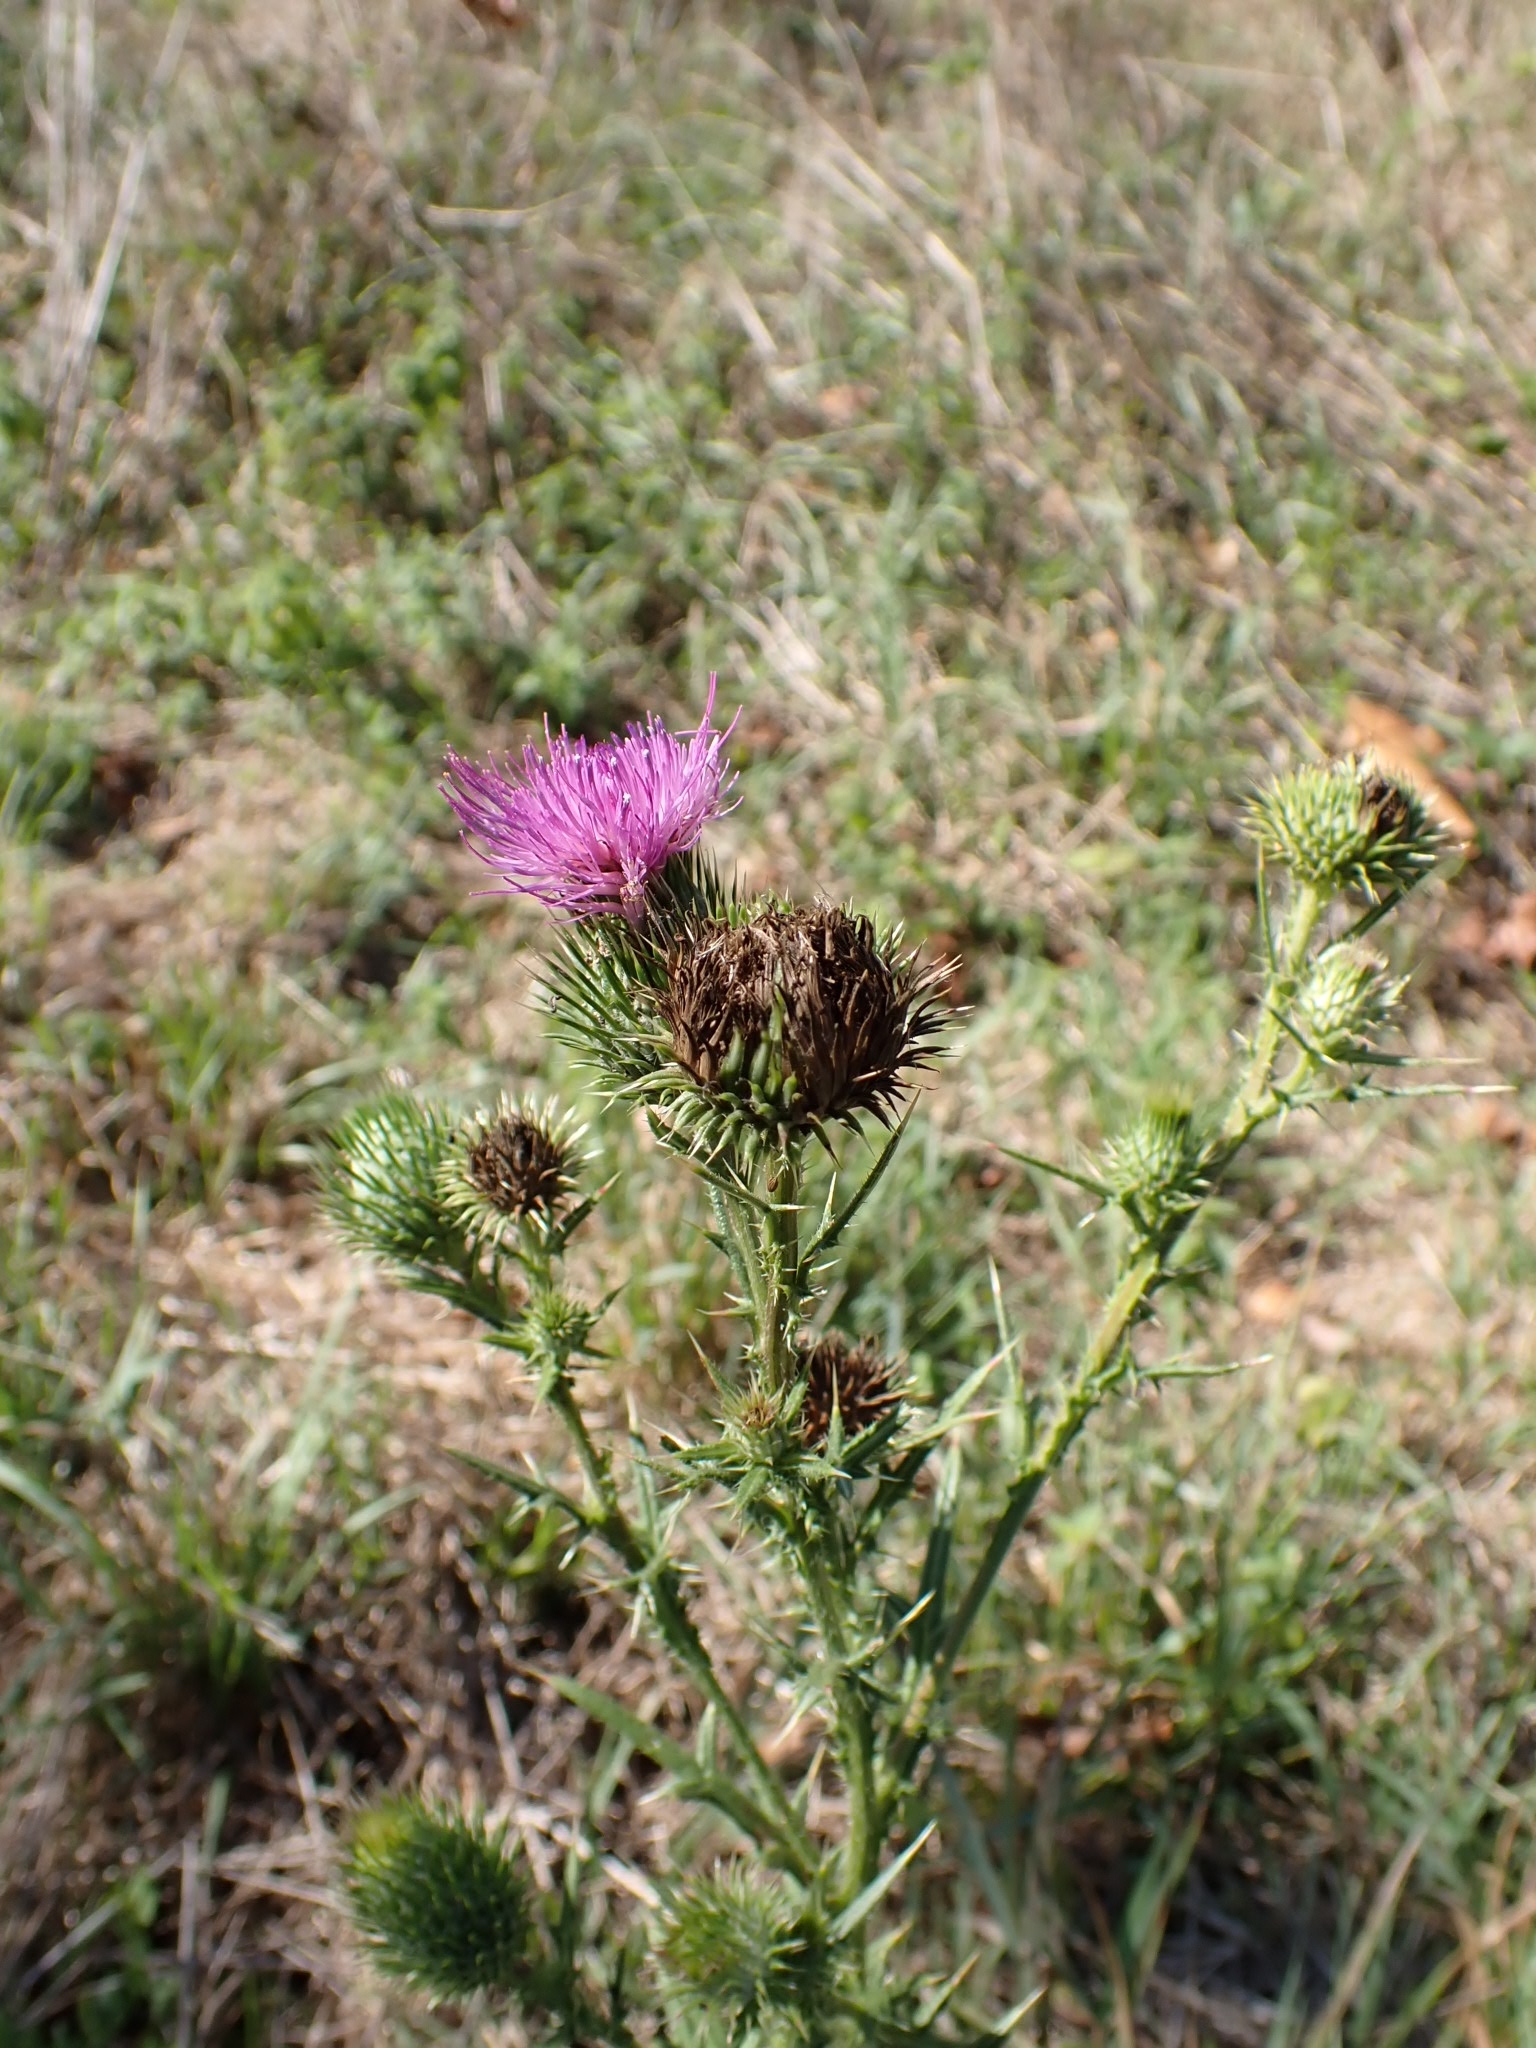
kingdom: Plantae
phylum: Tracheophyta
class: Magnoliopsida
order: Asterales
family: Asteraceae
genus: Cirsium
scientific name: Cirsium vulgare
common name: Bull thistle
